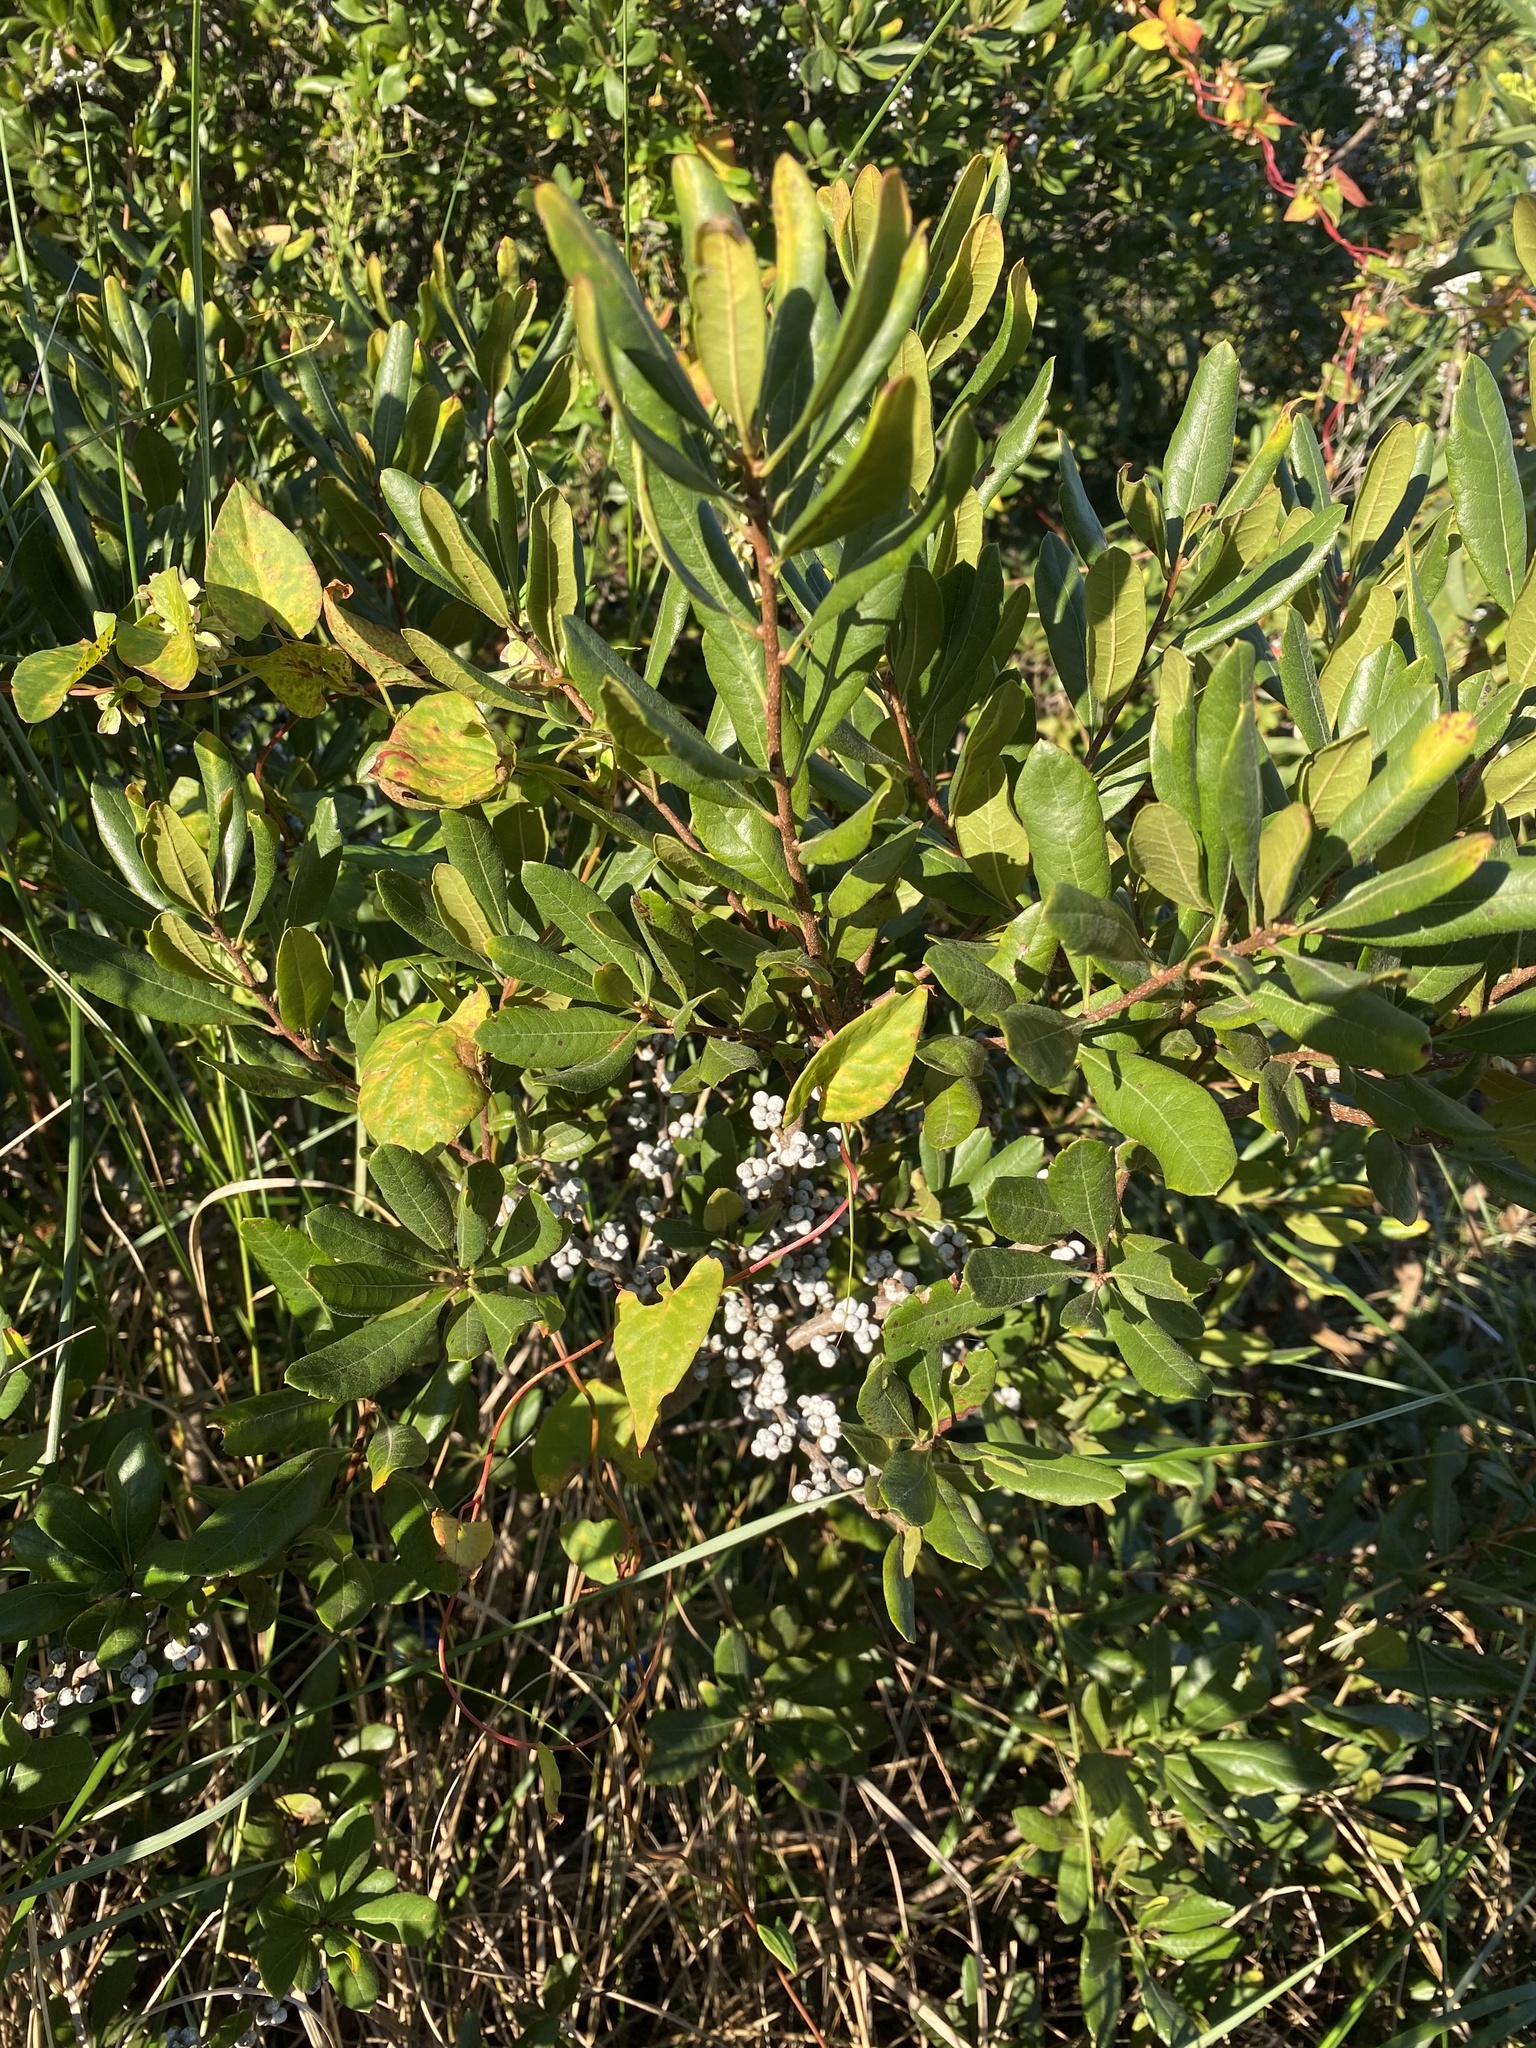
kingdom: Plantae
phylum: Tracheophyta
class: Magnoliopsida
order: Fagales
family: Myricaceae
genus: Morella
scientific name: Morella pensylvanica
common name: Northern bayberry
